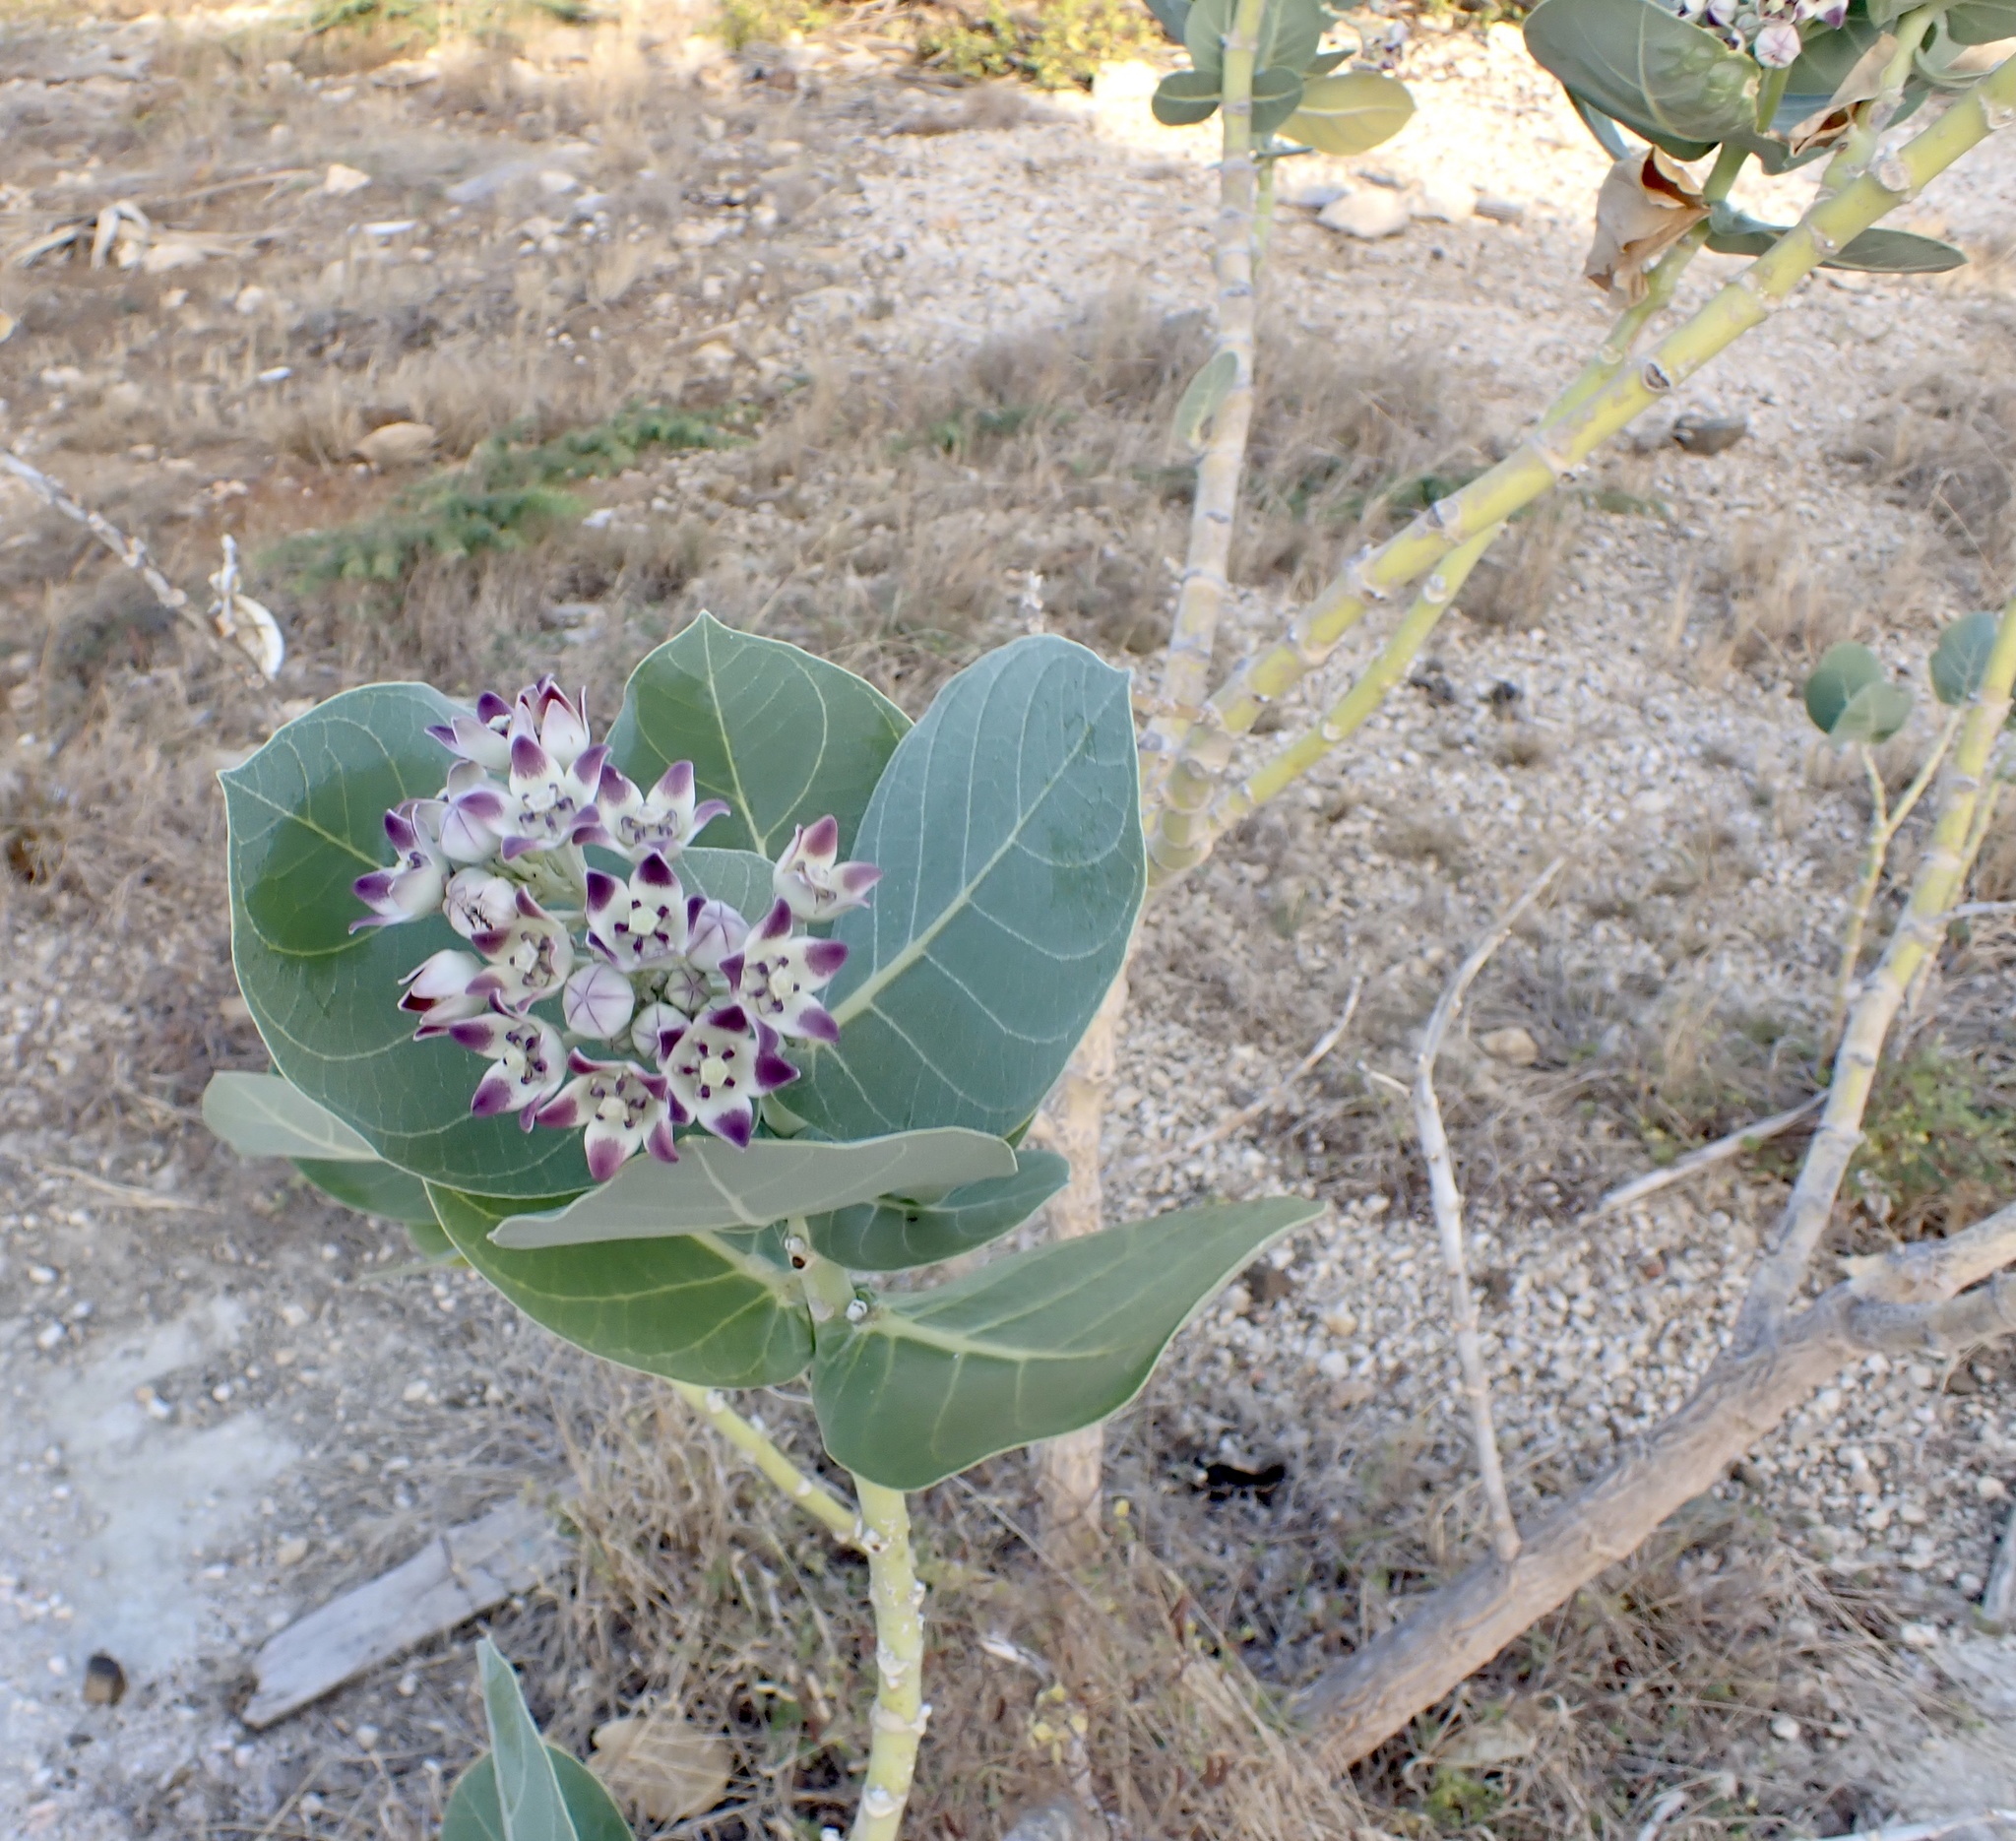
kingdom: Plantae
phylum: Tracheophyta
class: Magnoliopsida
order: Gentianales
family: Apocynaceae
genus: Calotropis
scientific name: Calotropis procera
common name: Roostertree
